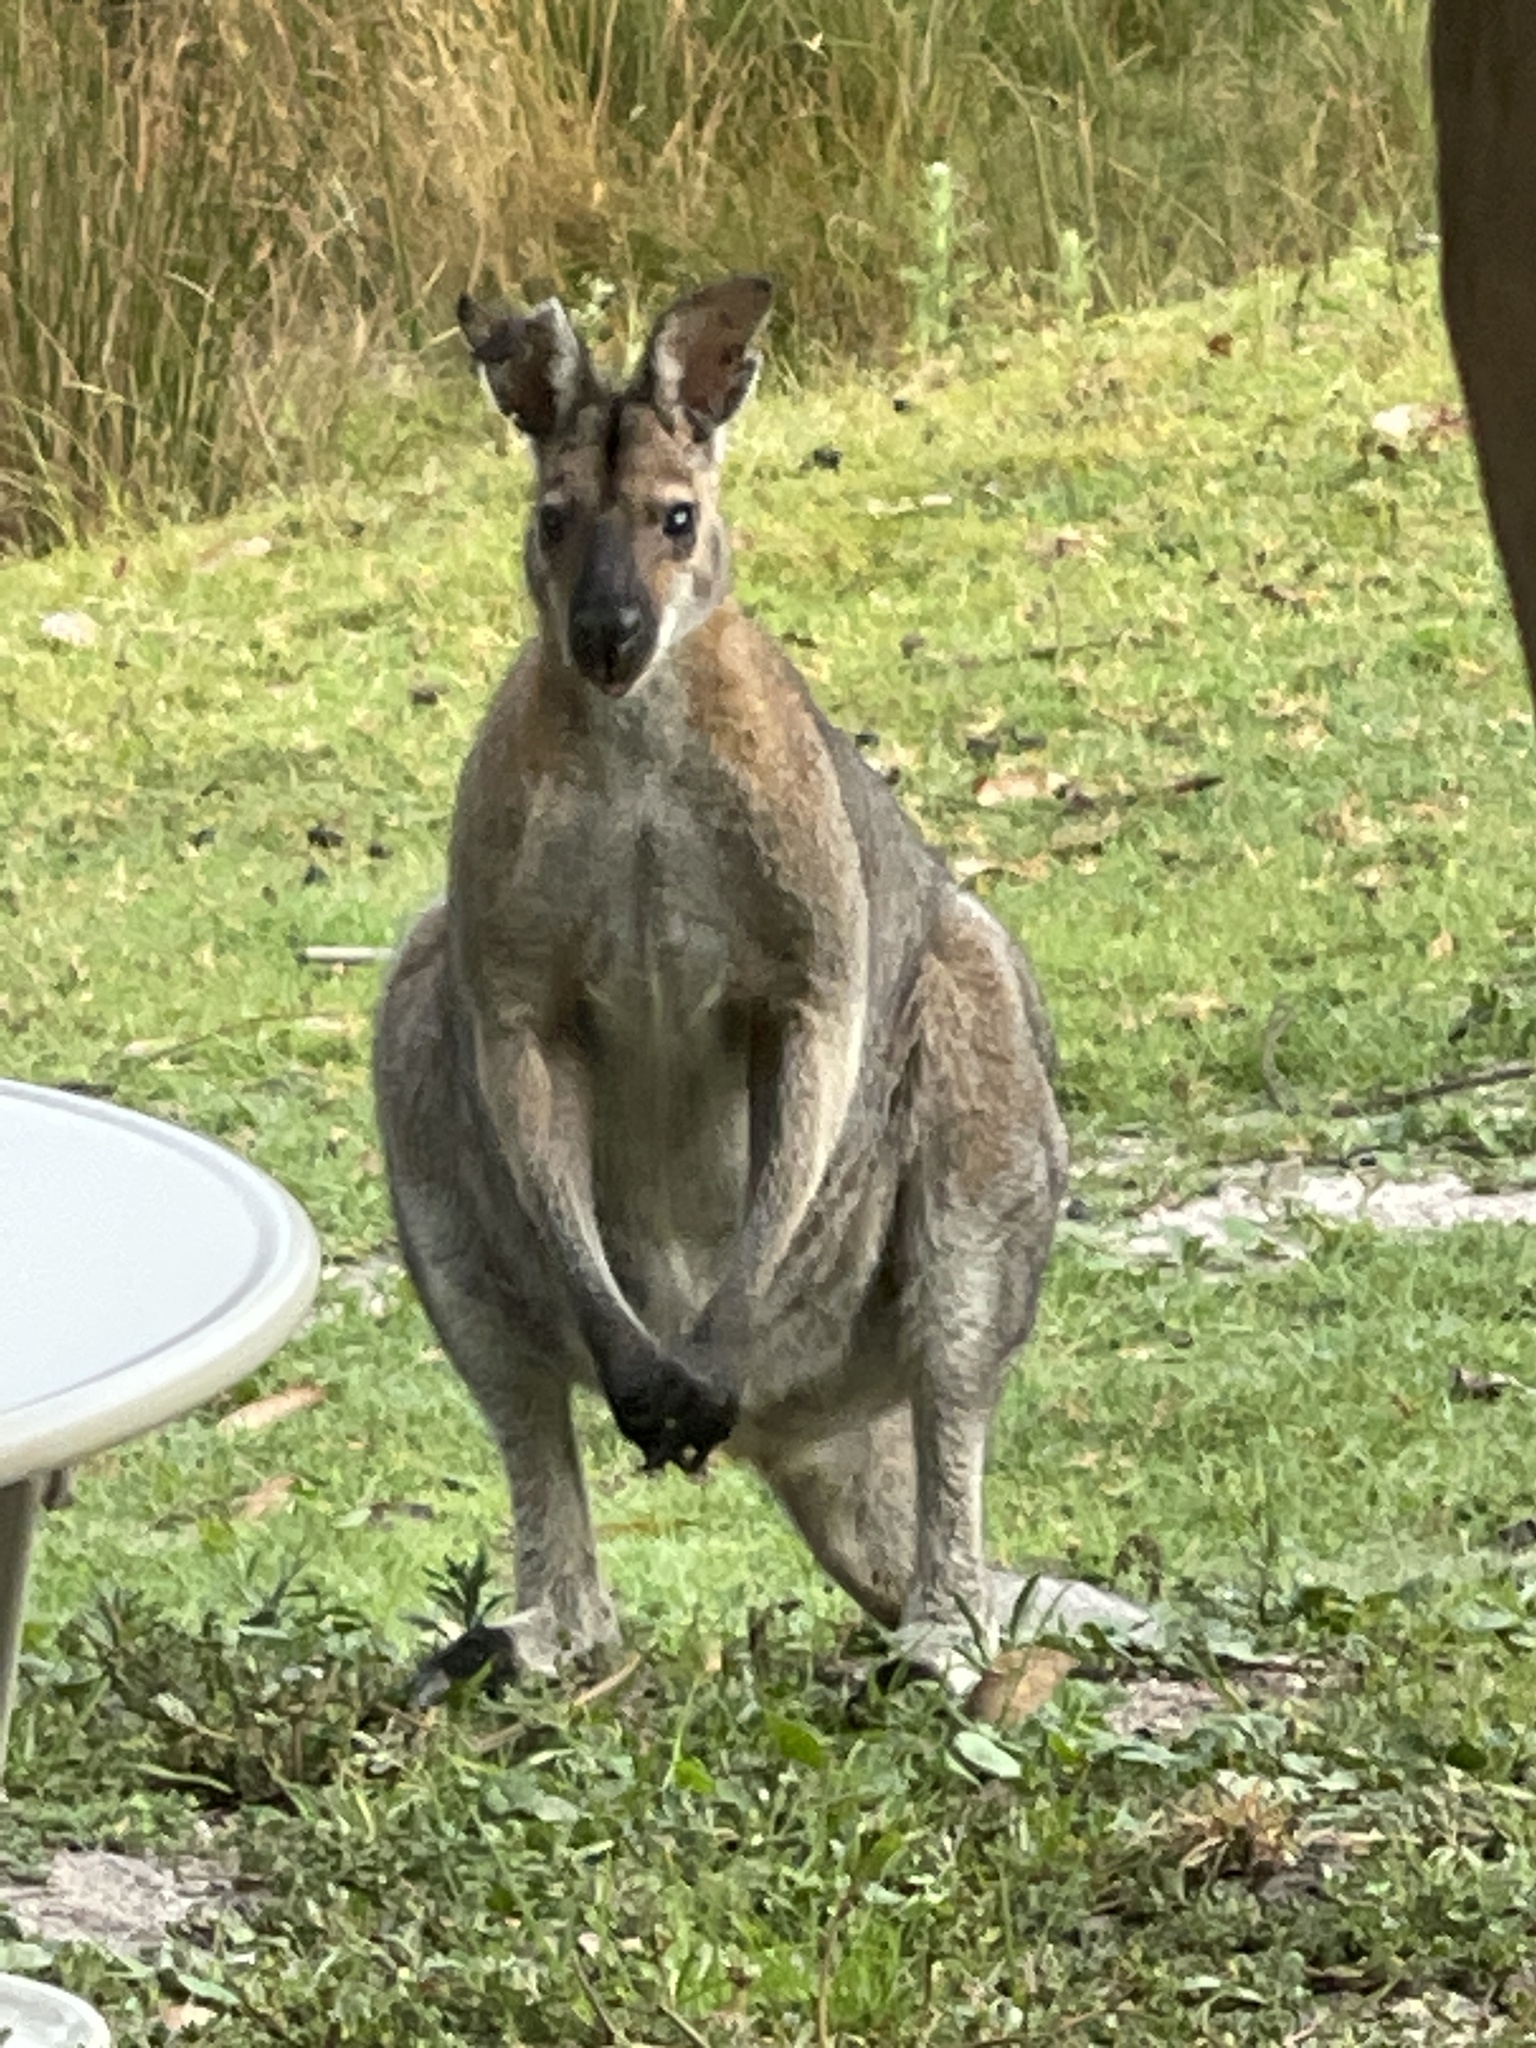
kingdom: Animalia
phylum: Chordata
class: Mammalia
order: Diprotodontia
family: Macropodidae
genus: Notamacropus
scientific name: Notamacropus rufogriseus
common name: Red-necked wallaby
